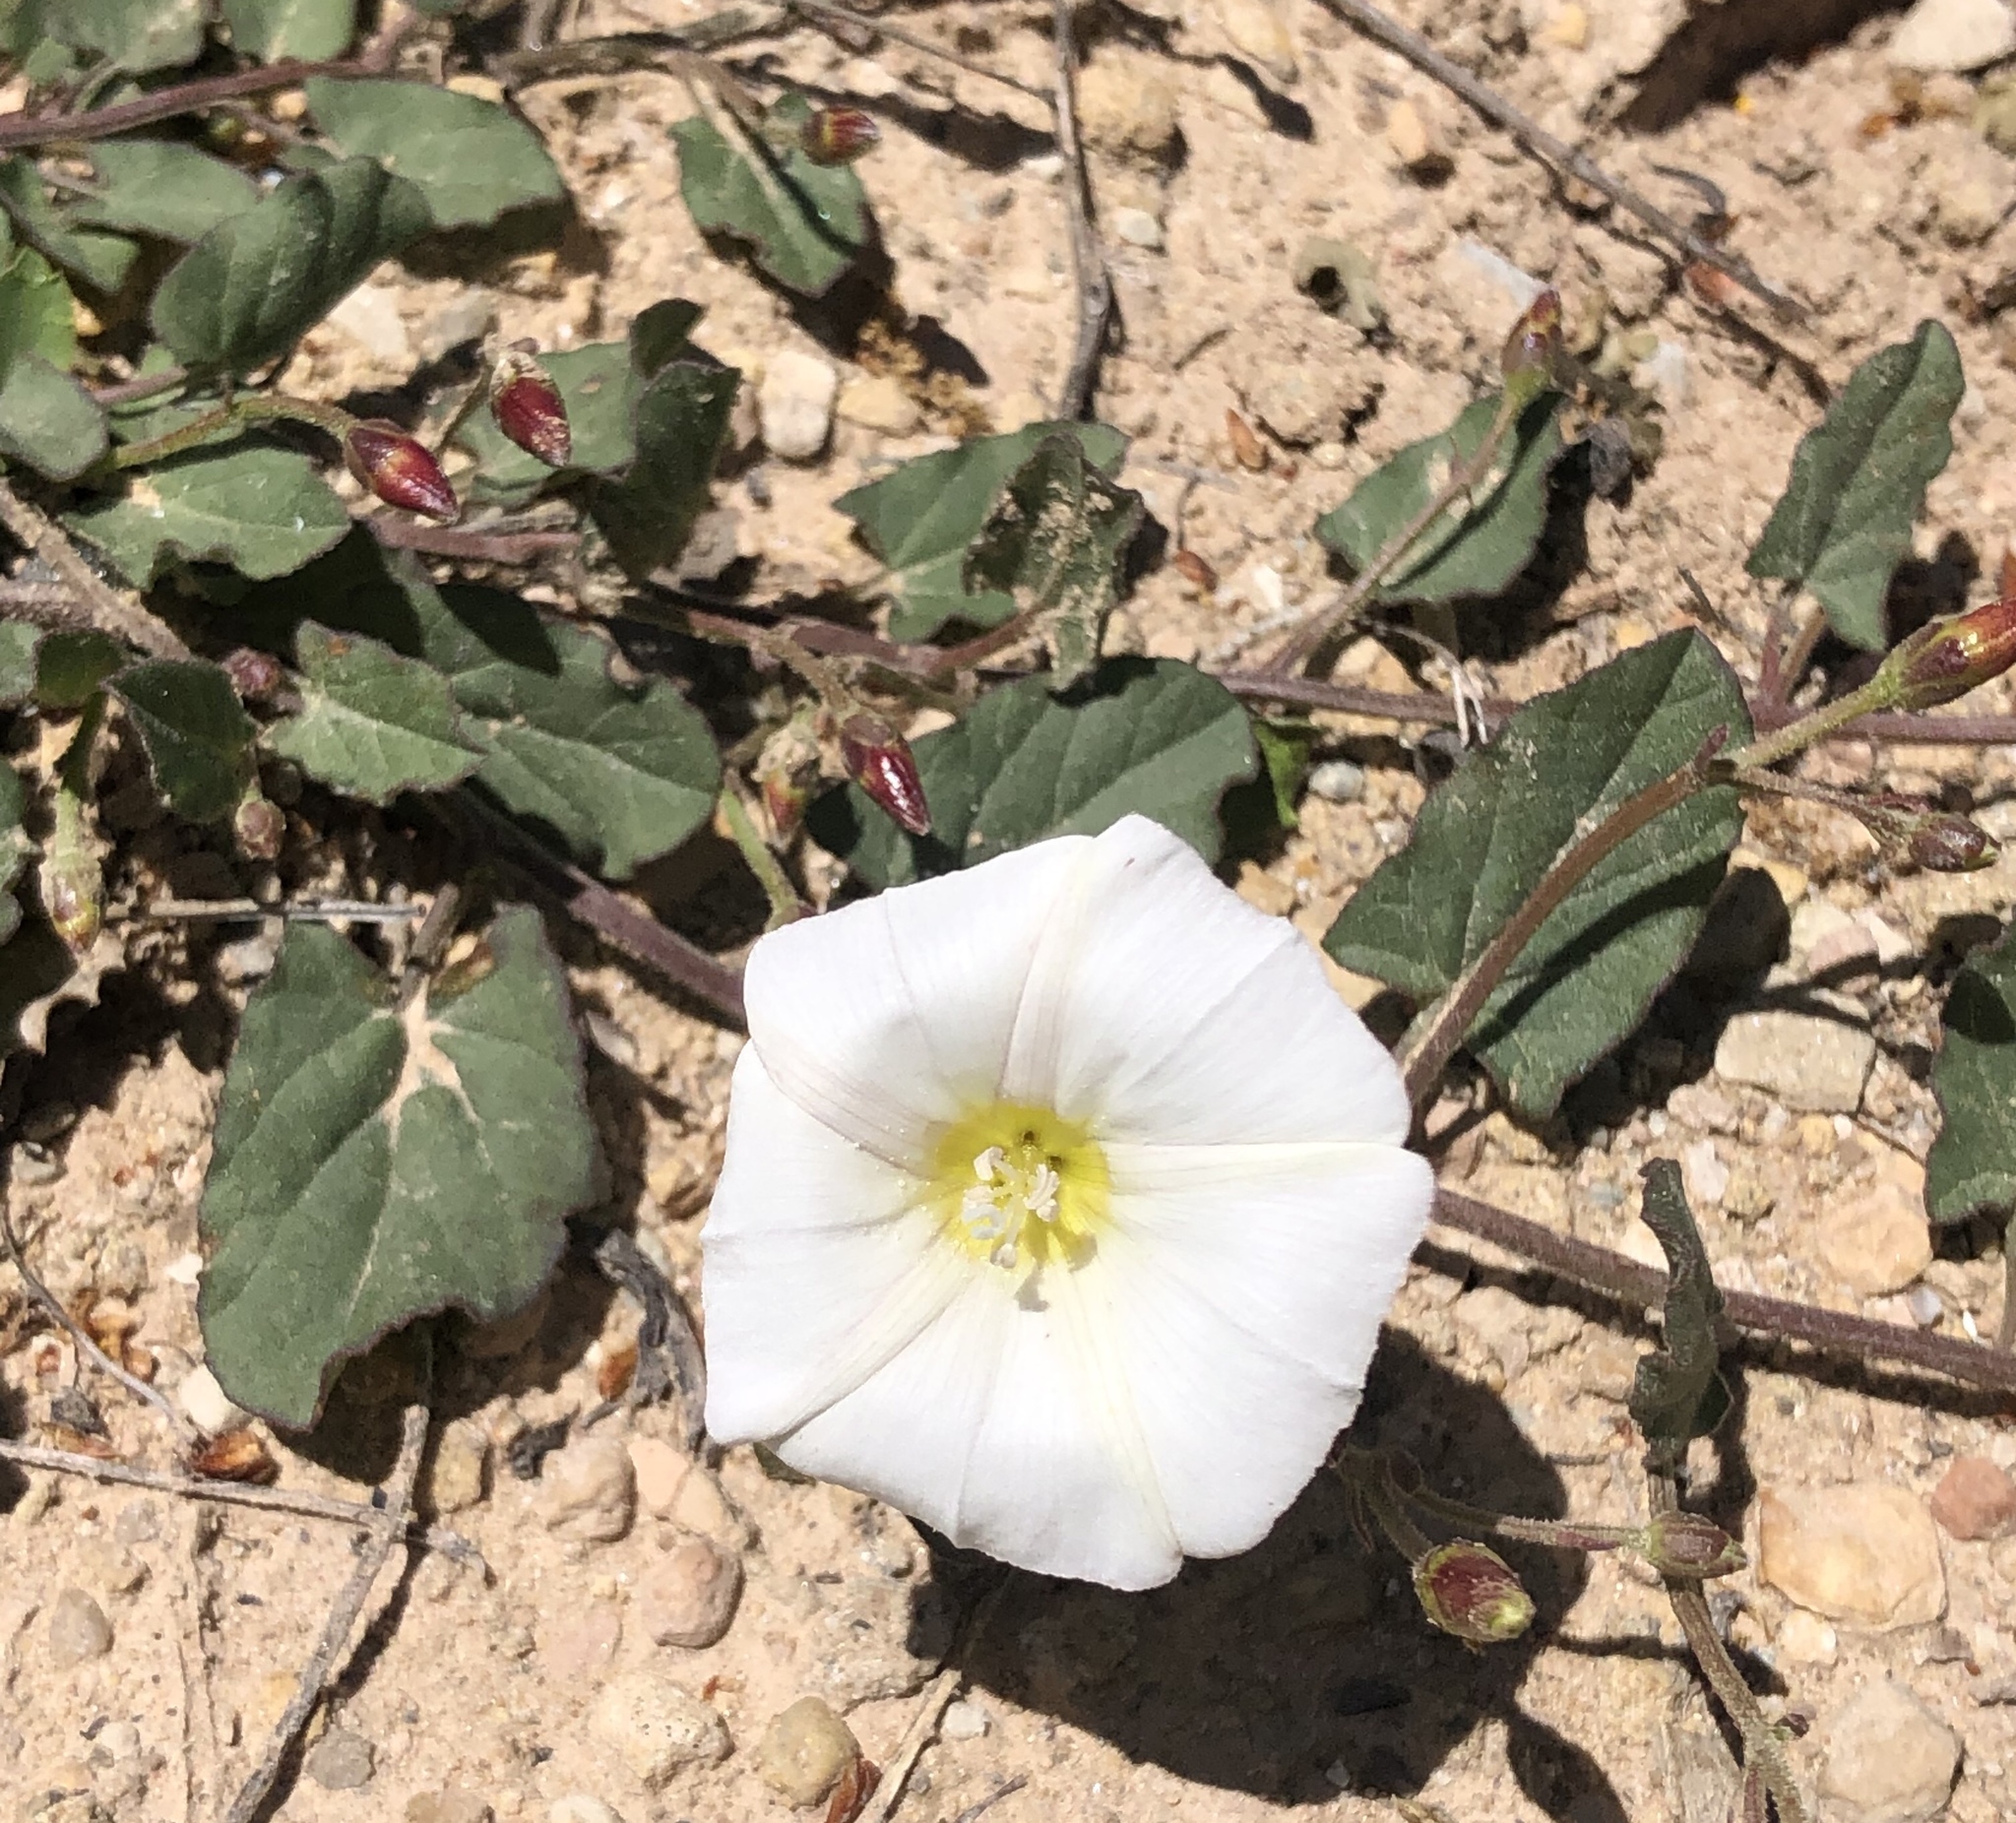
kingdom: Plantae
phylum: Tracheophyta
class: Magnoliopsida
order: Solanales
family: Convolvulaceae
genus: Convolvulus
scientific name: Convolvulus arvensis
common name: Field bindweed
